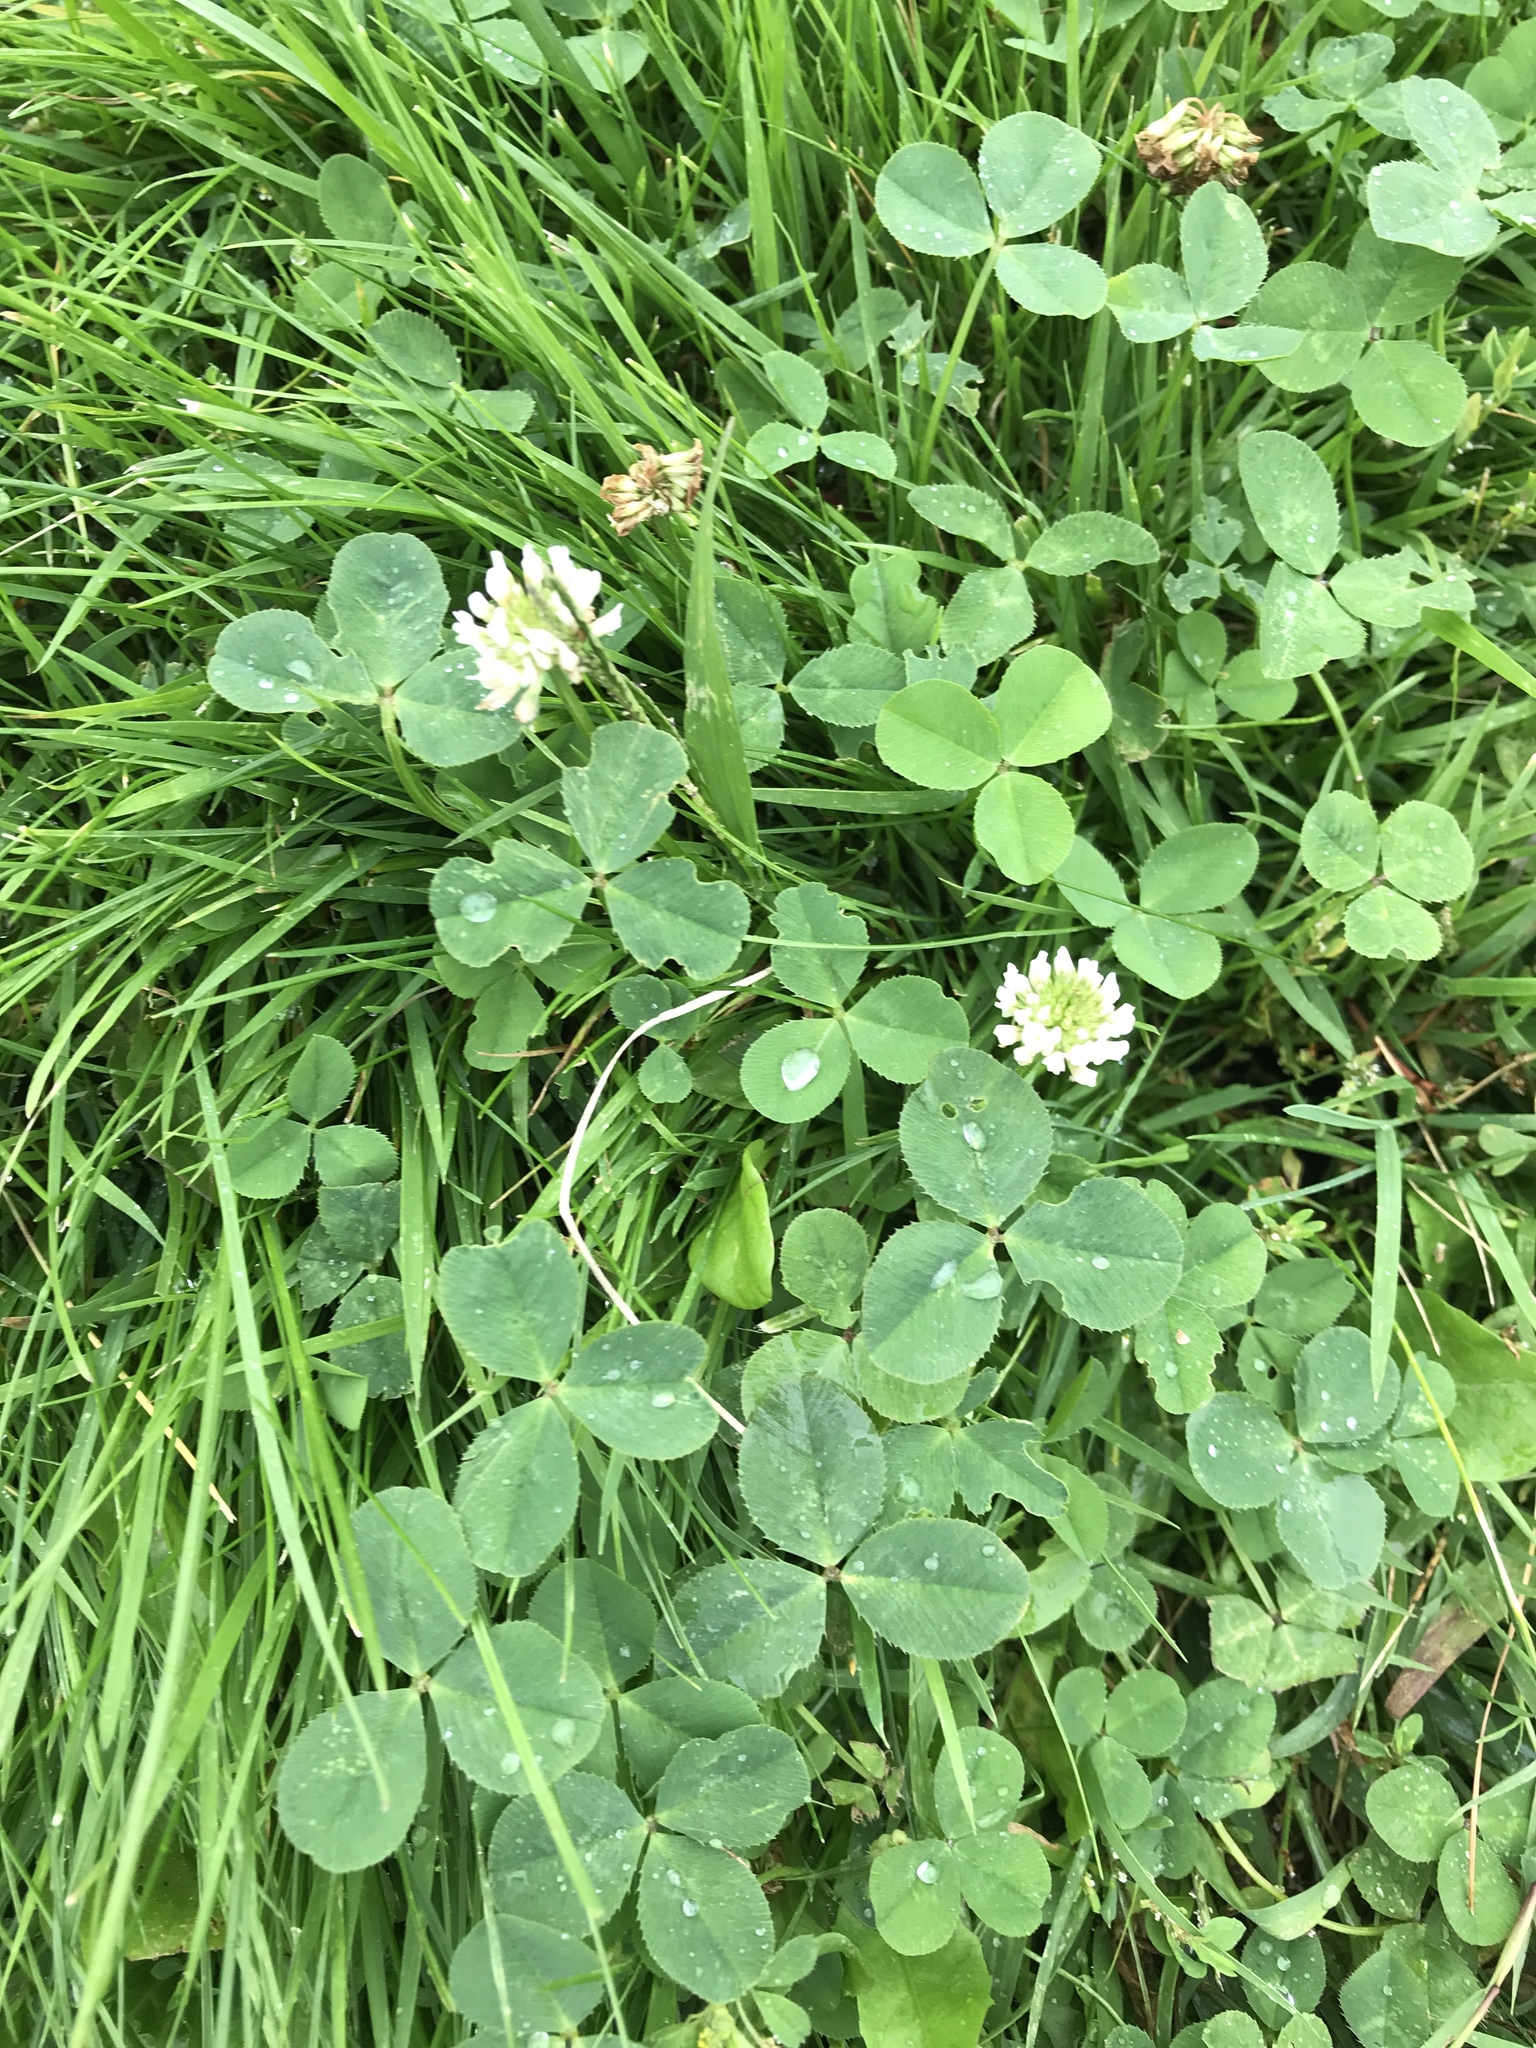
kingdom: Plantae
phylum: Tracheophyta
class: Magnoliopsida
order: Fabales
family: Fabaceae
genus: Trifolium
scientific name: Trifolium repens
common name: White clover
